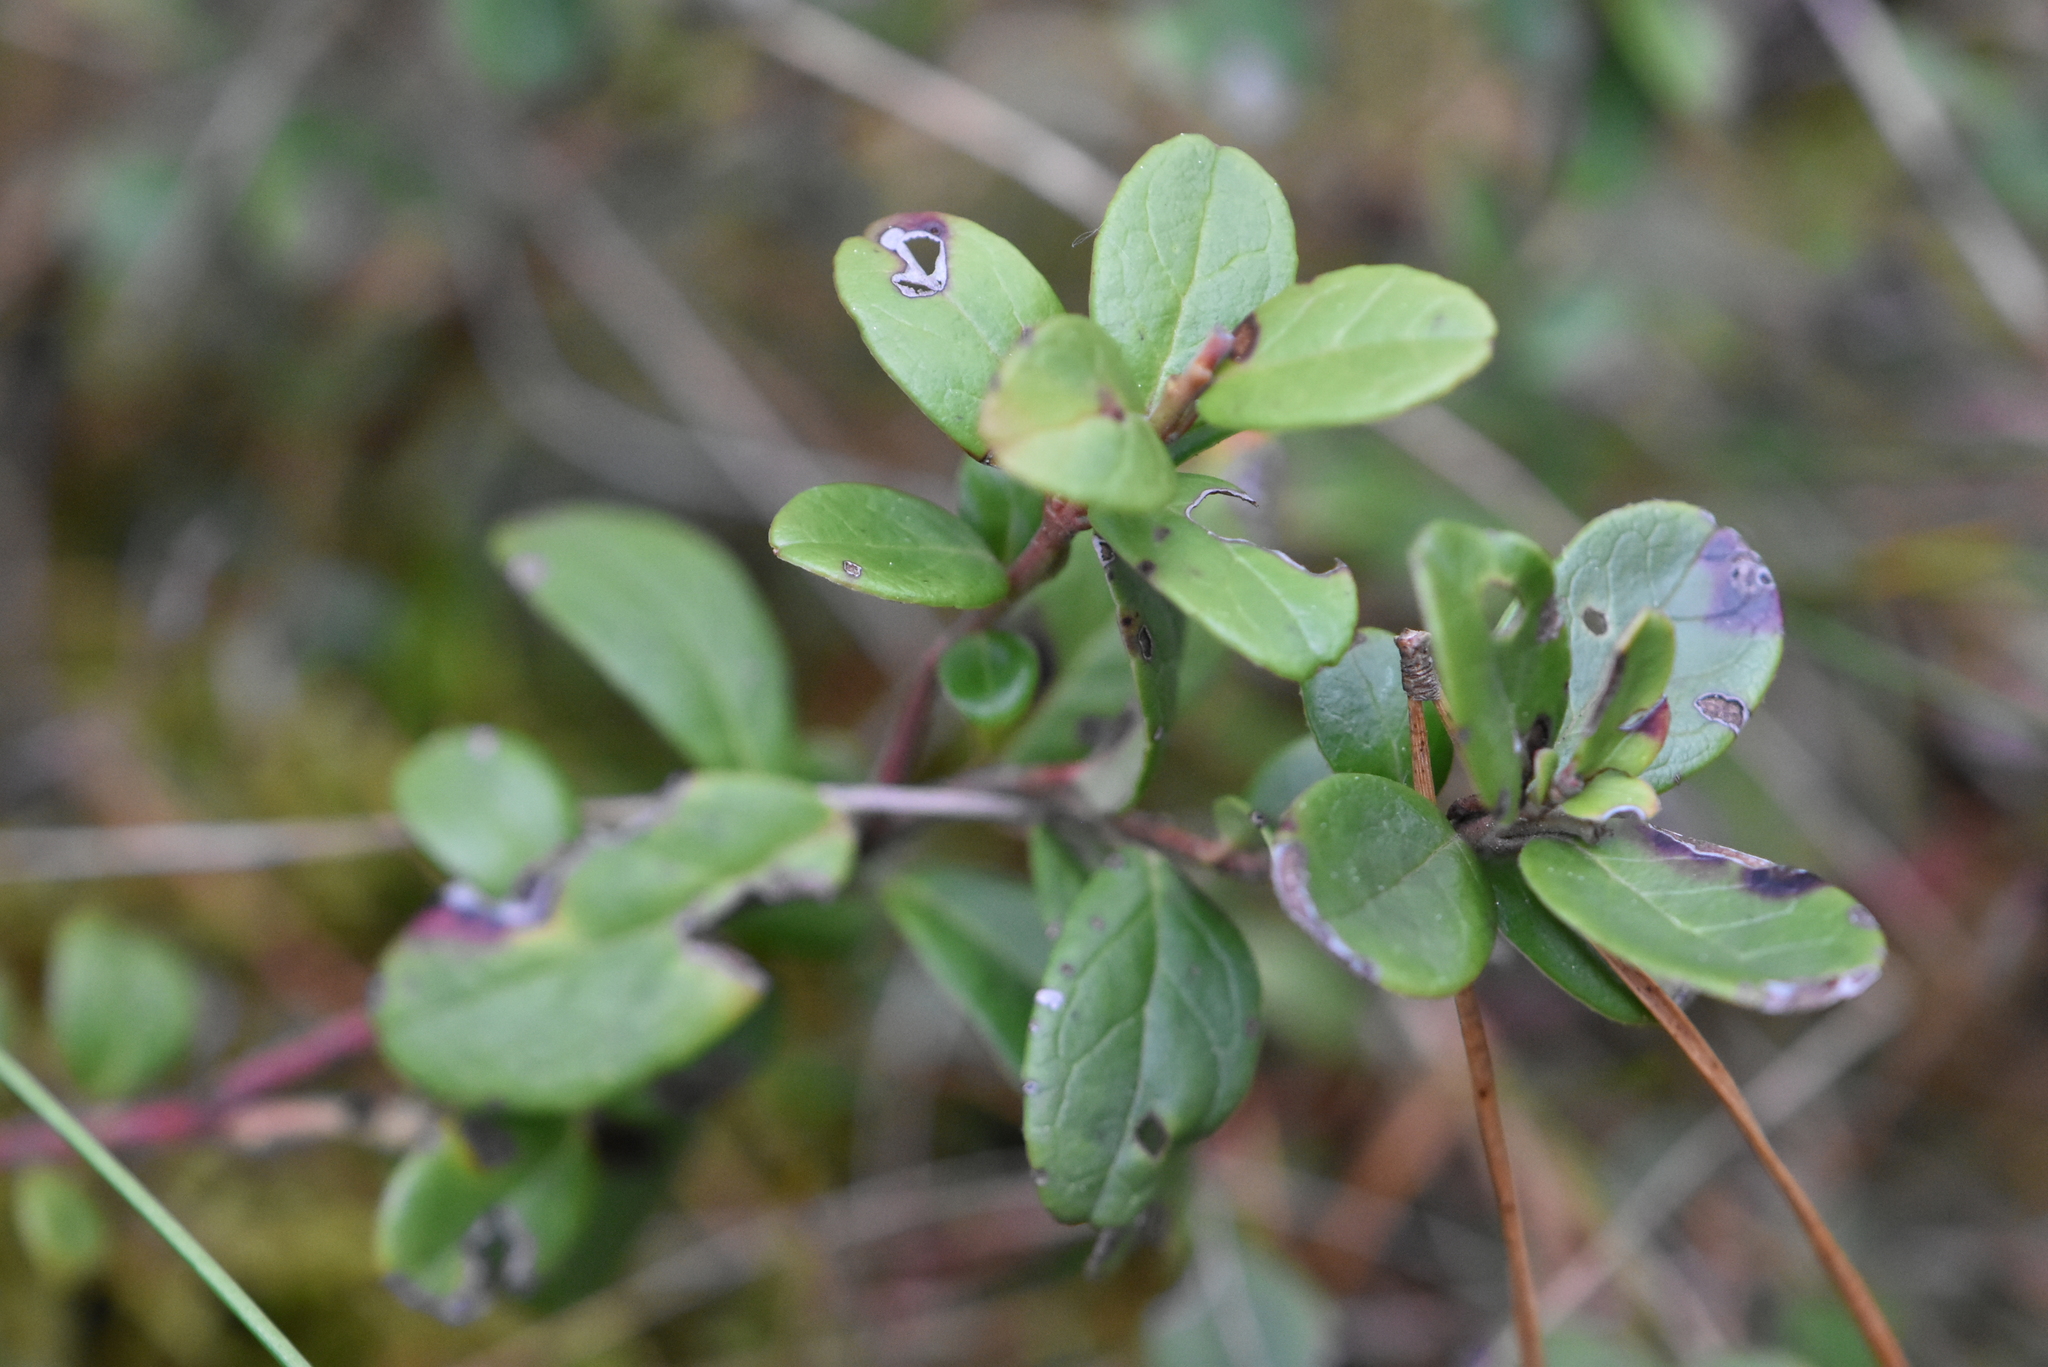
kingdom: Plantae
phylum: Tracheophyta
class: Magnoliopsida
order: Ericales
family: Ericaceae
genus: Vaccinium
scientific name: Vaccinium vitis-idaea
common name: Cowberry
